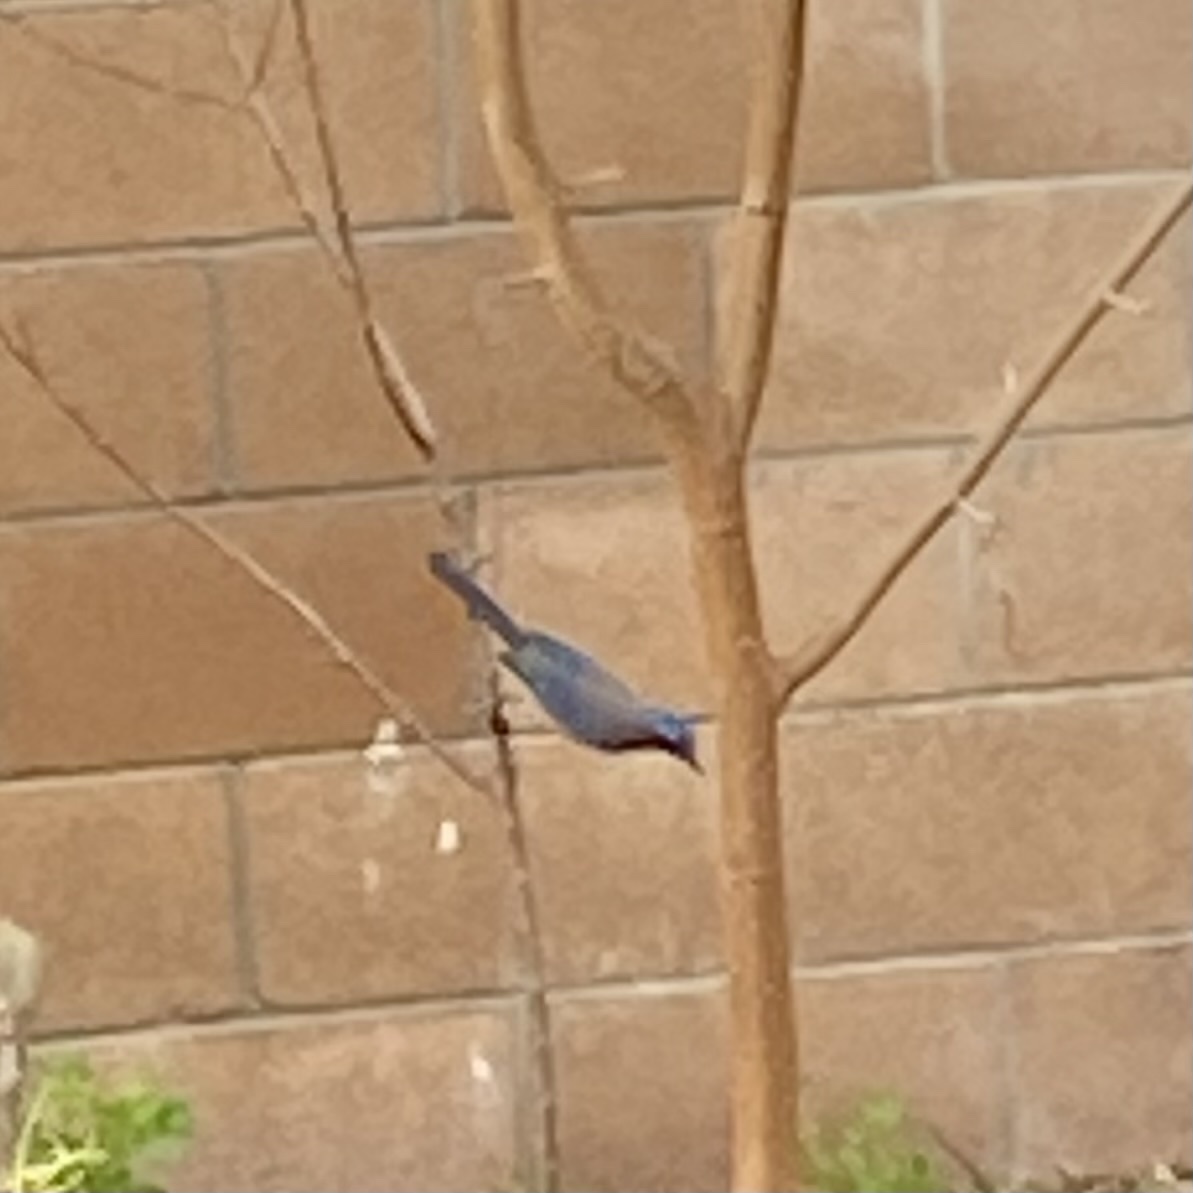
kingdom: Animalia
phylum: Chordata
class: Aves
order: Passeriformes
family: Corvidae
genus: Aphelocoma
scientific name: Aphelocoma californica
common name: California scrub-jay
